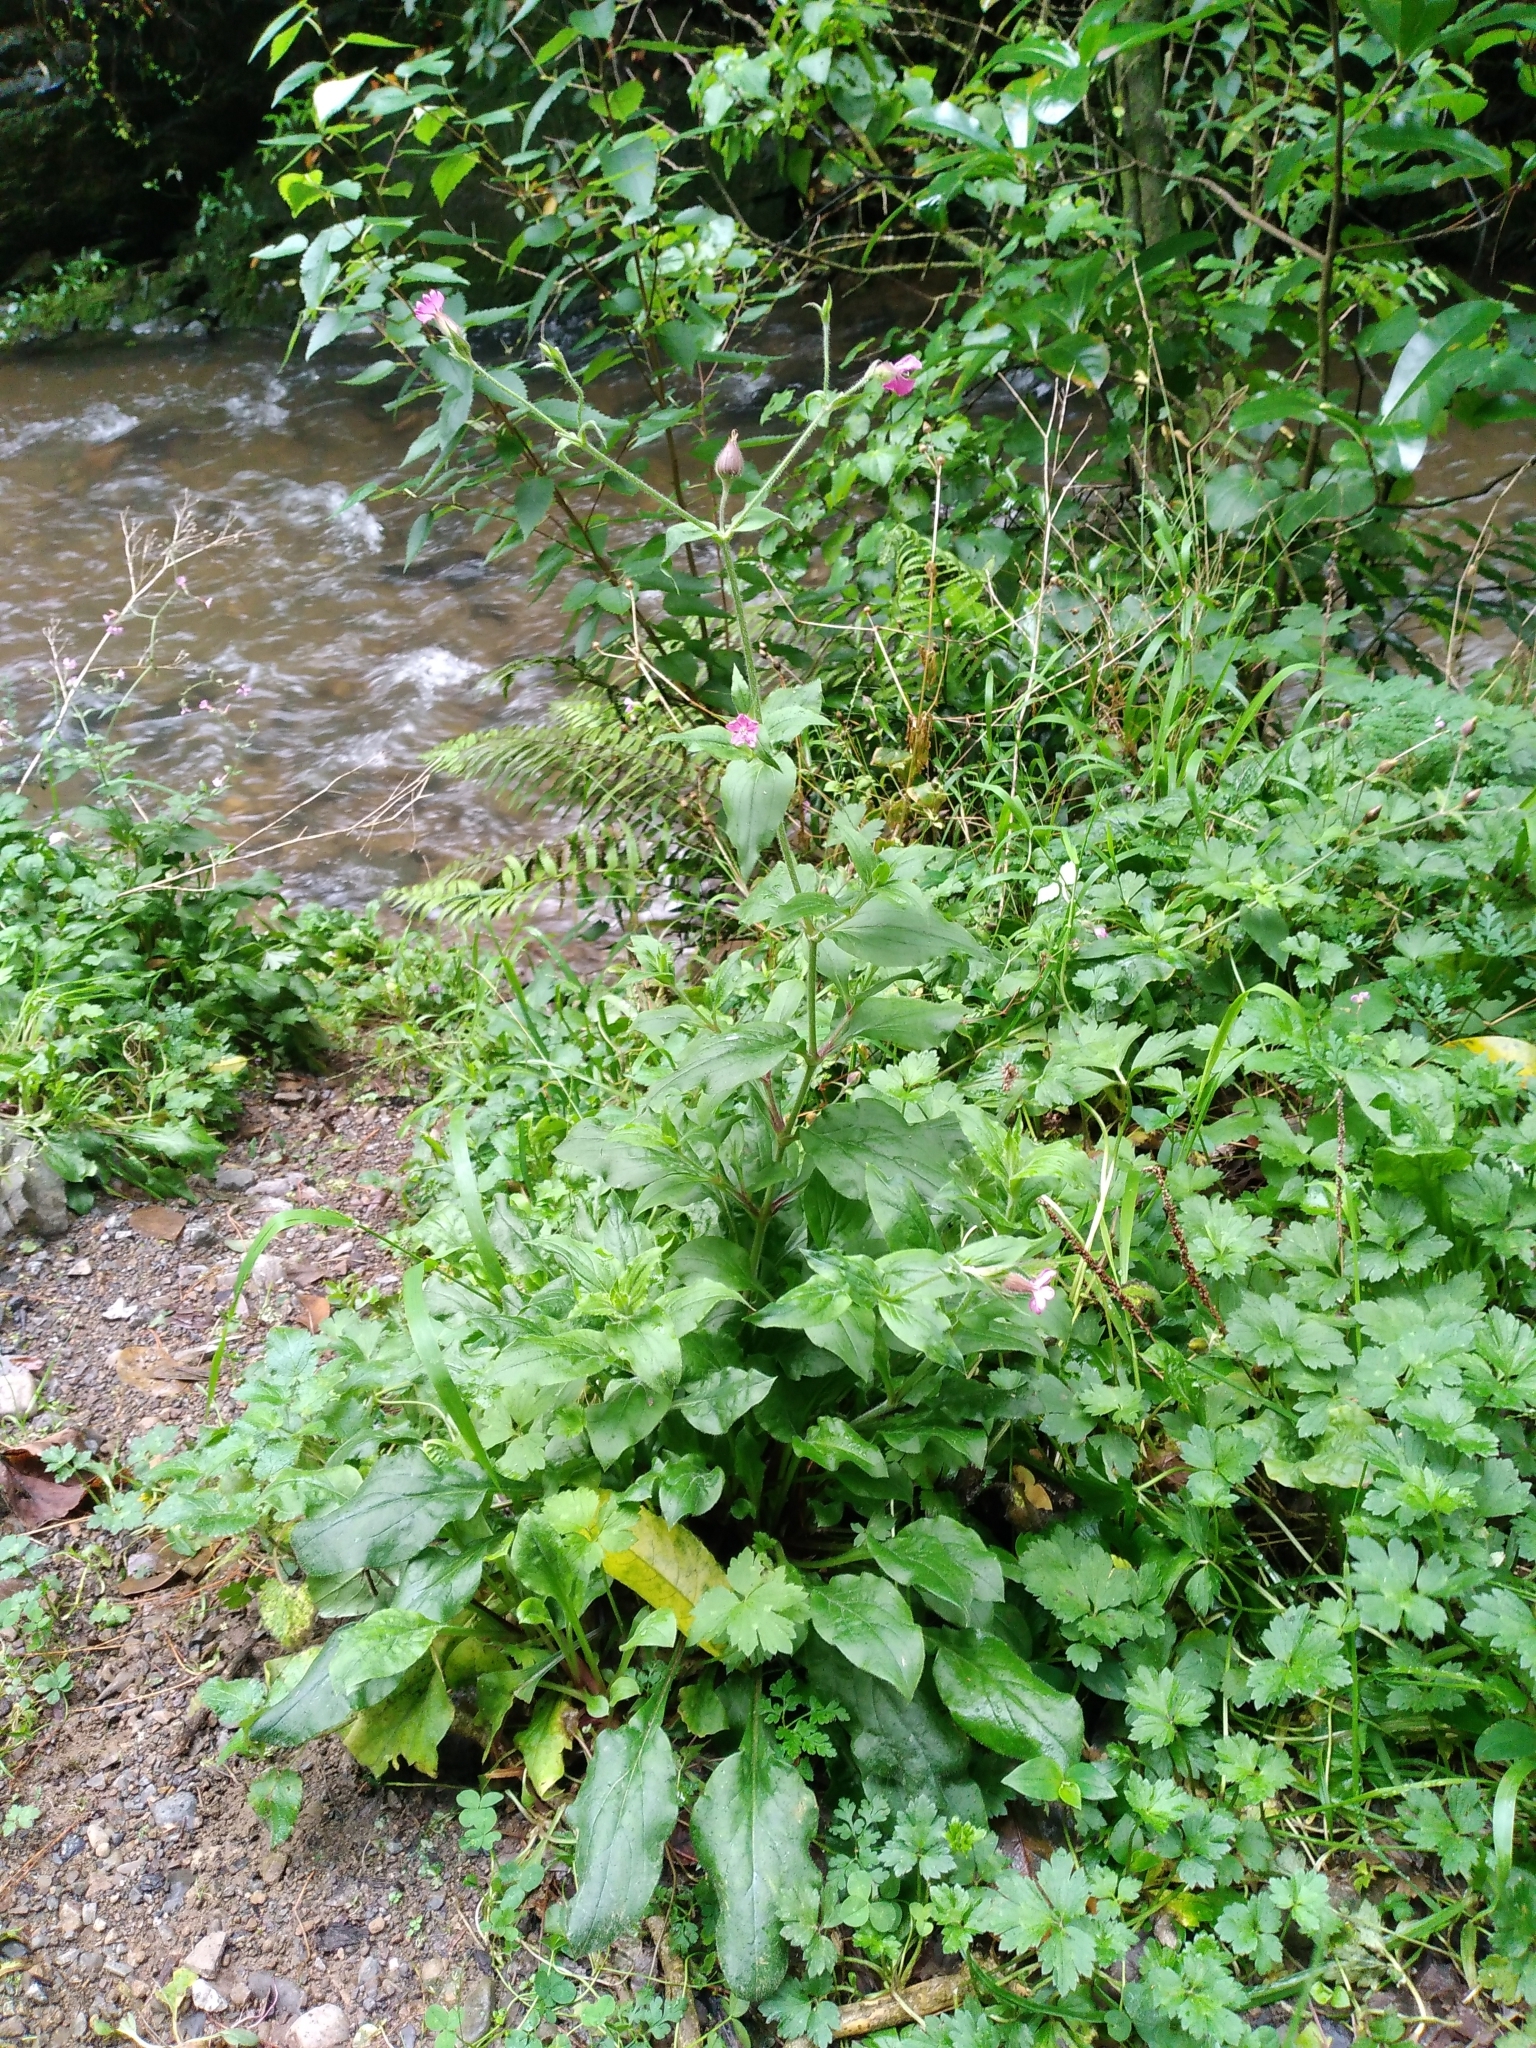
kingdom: Plantae
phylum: Tracheophyta
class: Magnoliopsida
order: Caryophyllales
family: Caryophyllaceae
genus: Silene
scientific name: Silene dioica
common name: Red campion
